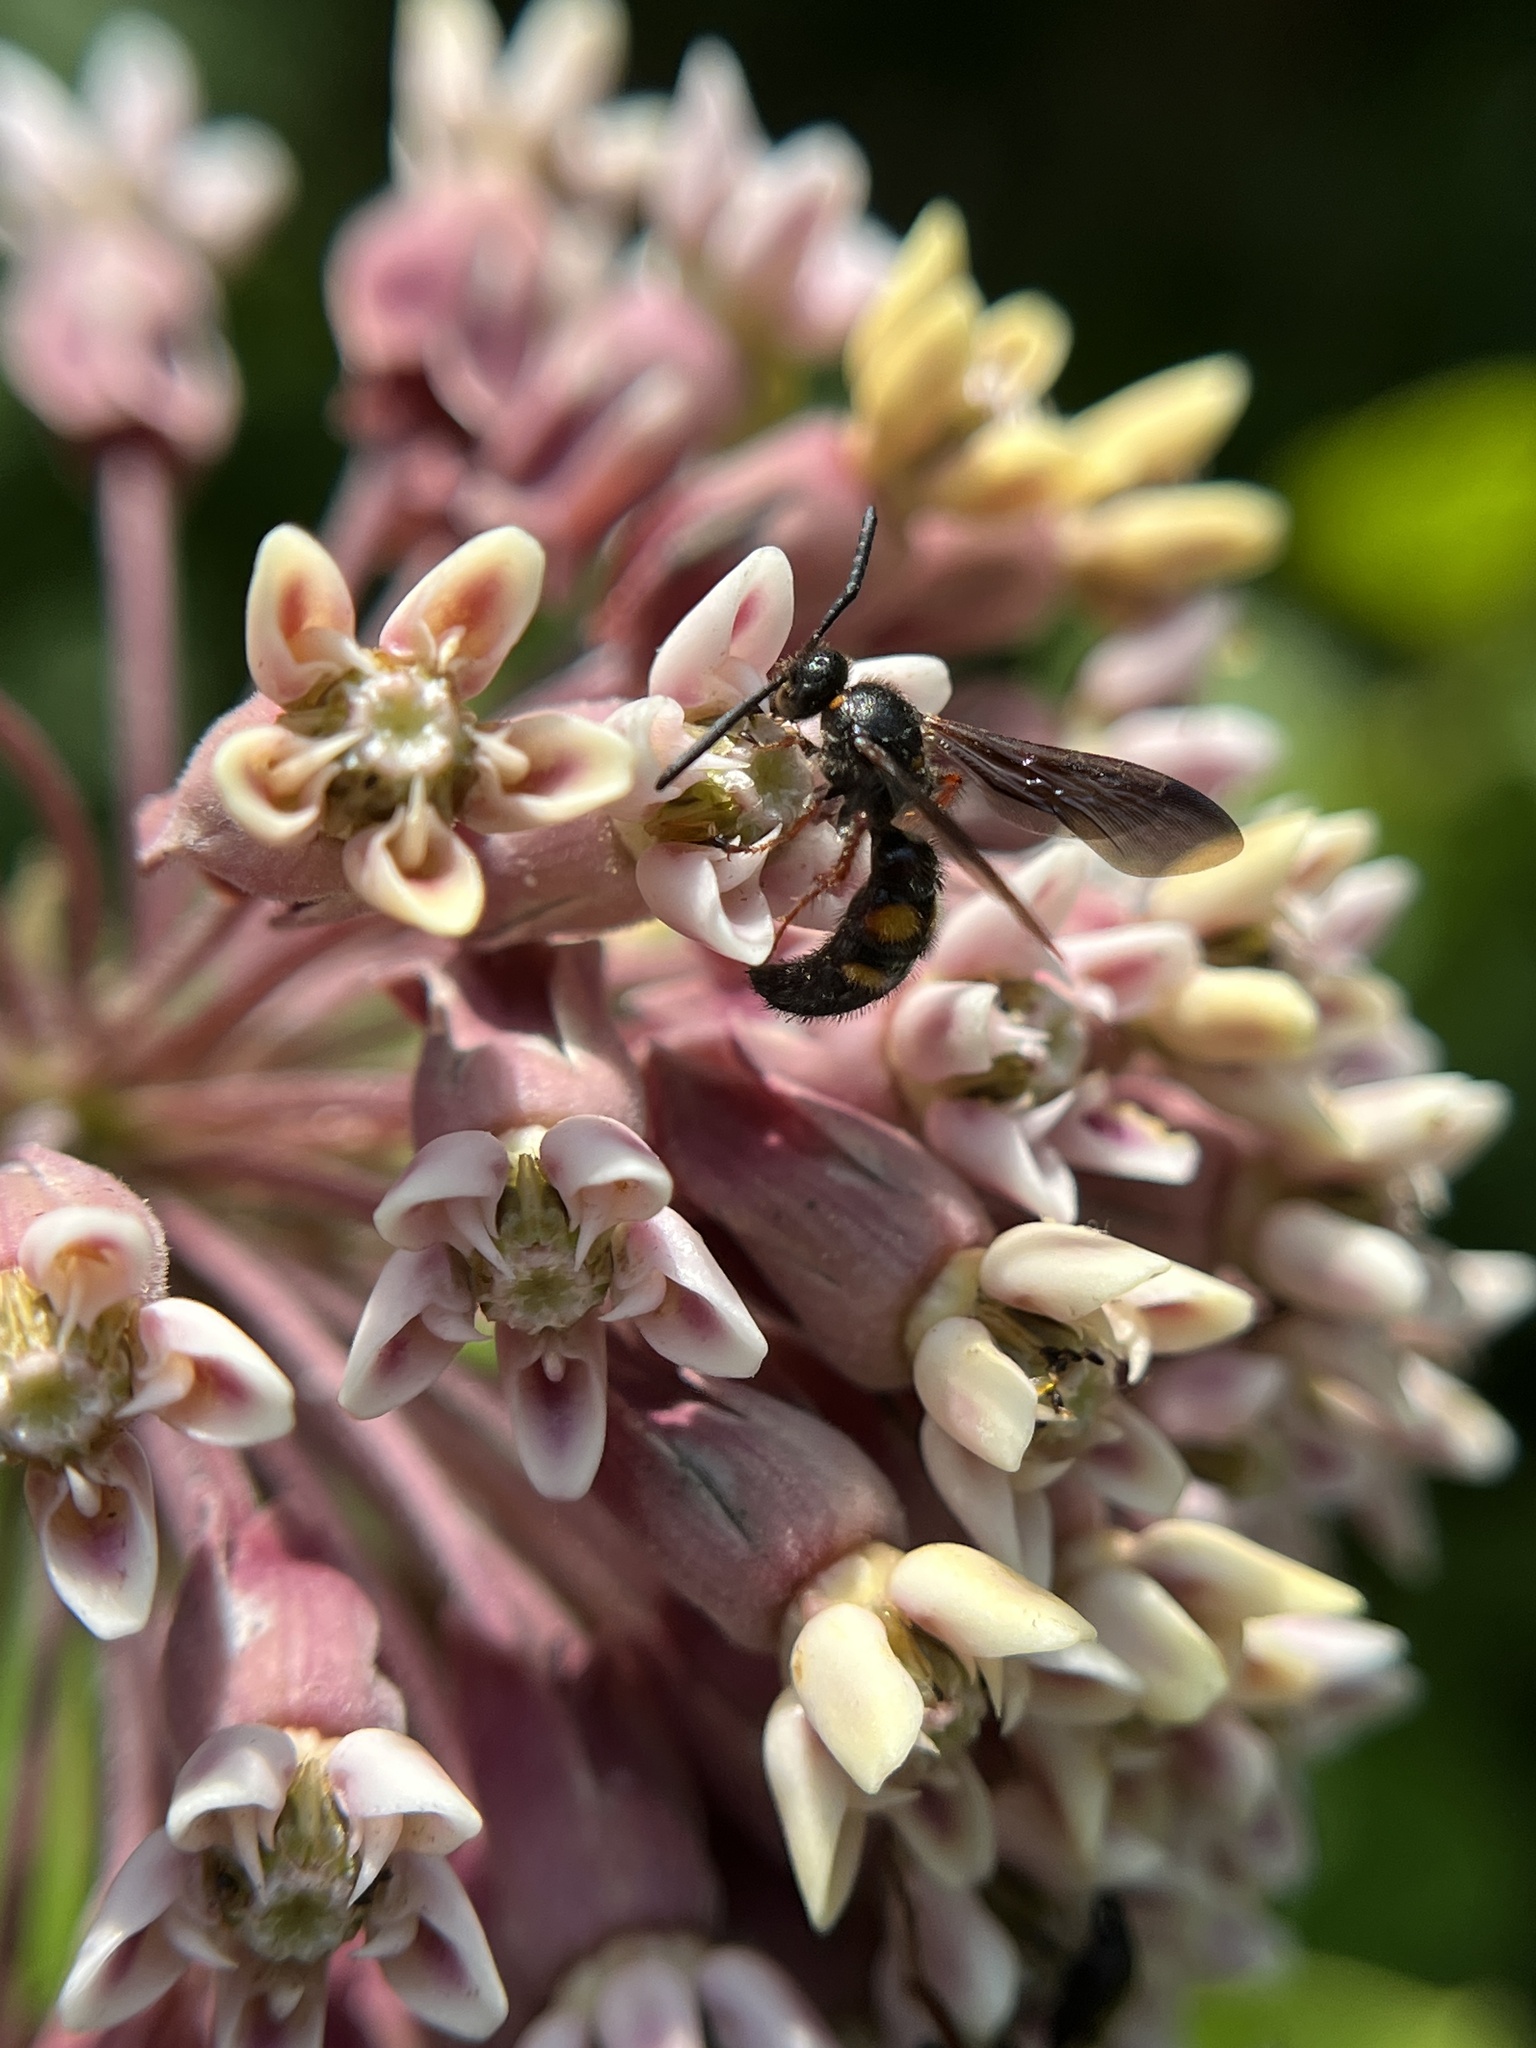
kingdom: Animalia
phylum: Arthropoda
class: Insecta
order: Hymenoptera
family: Scoliidae
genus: Scolia
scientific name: Scolia nobilitata
